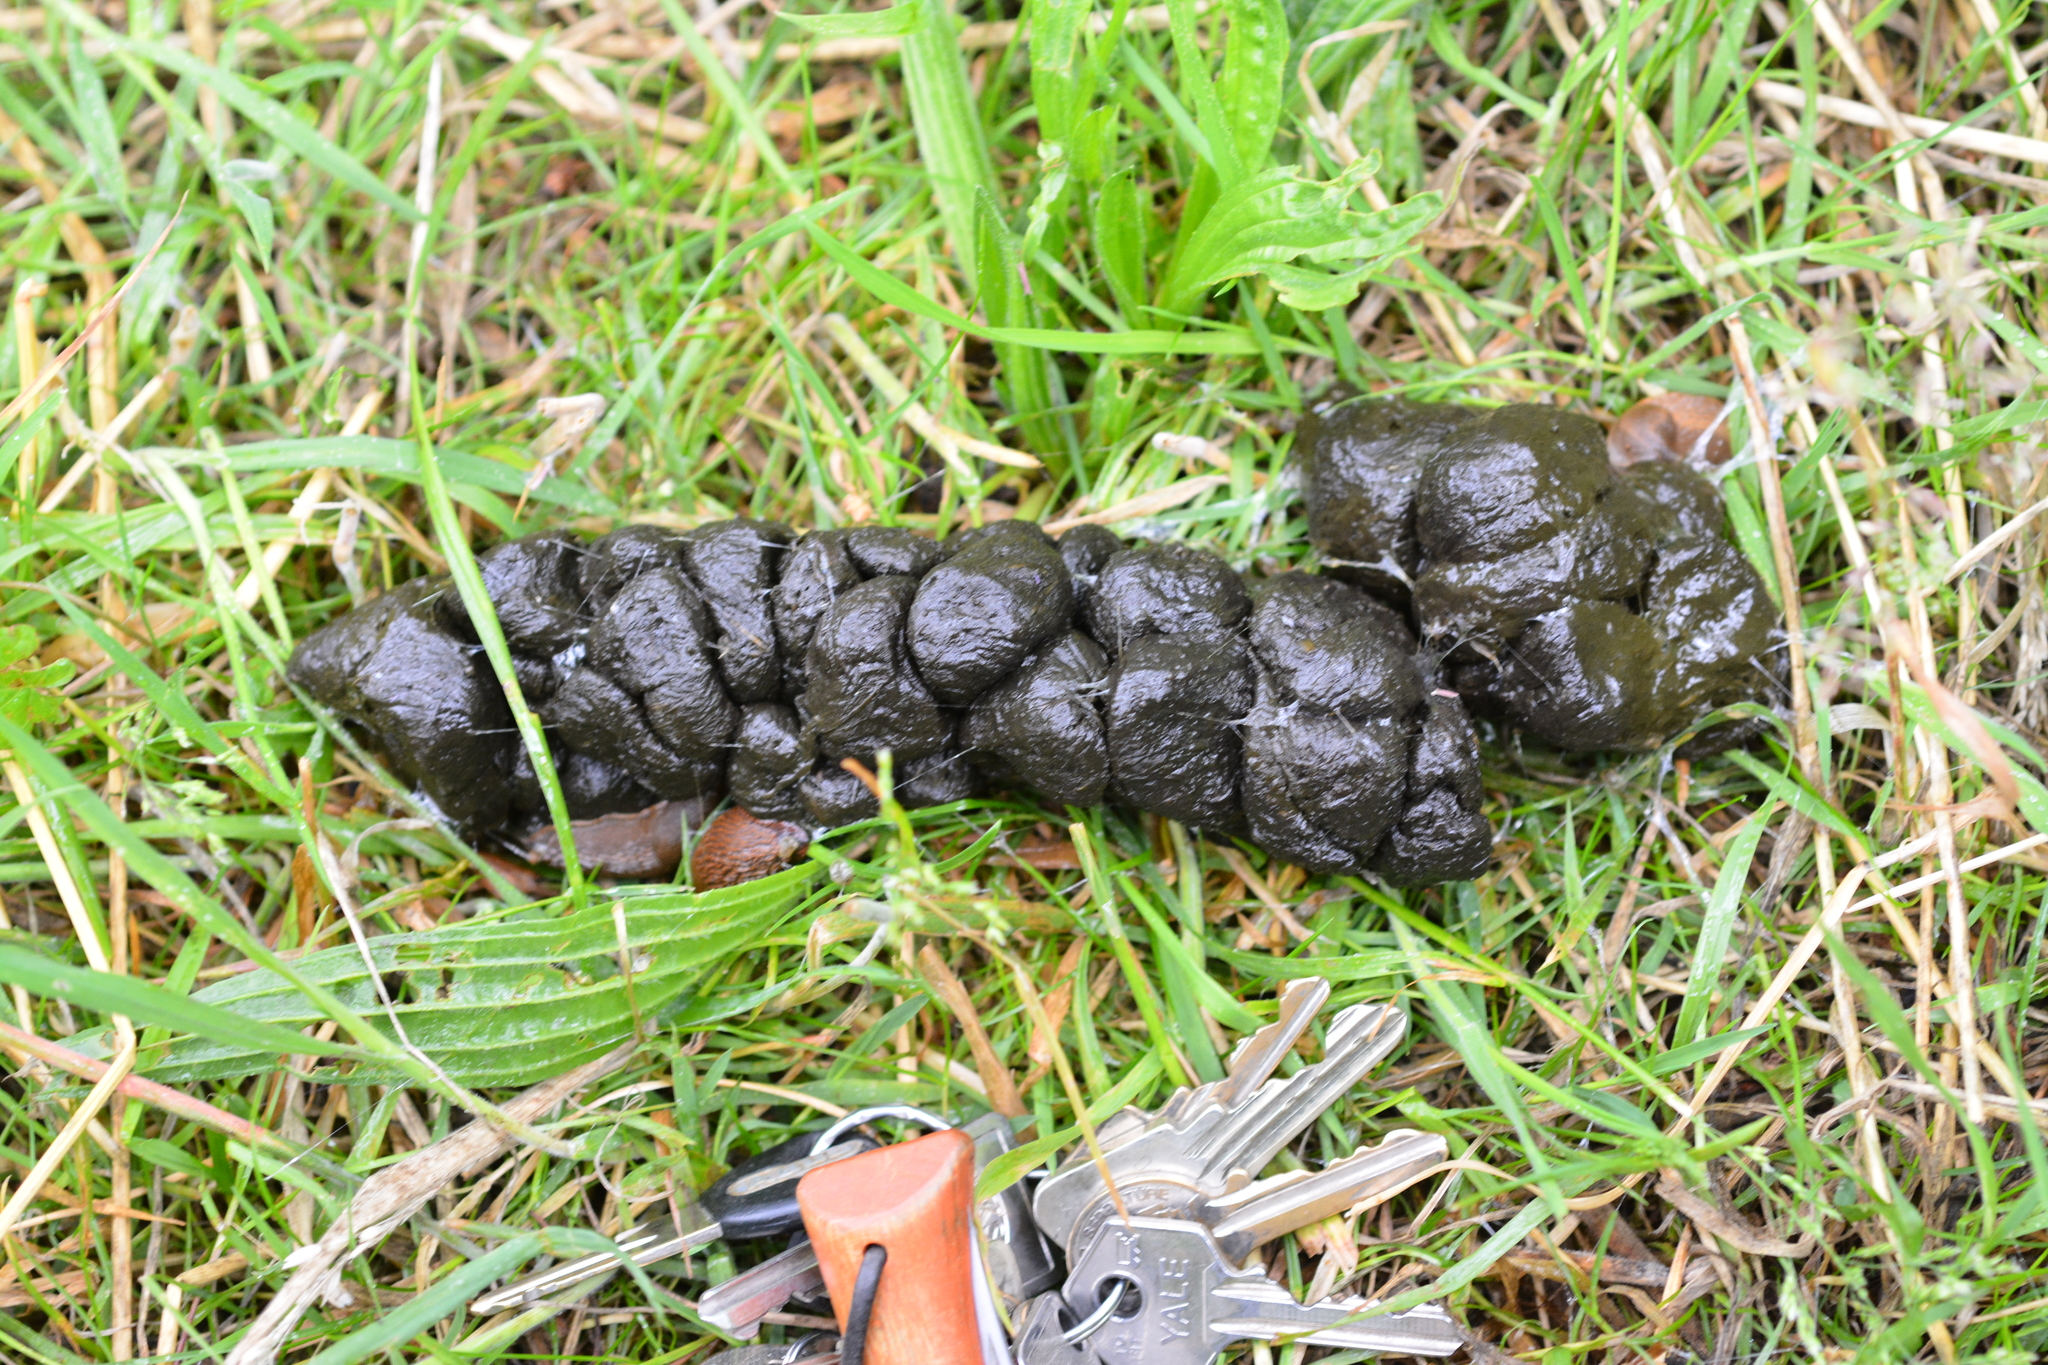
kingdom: Animalia
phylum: Chordata
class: Mammalia
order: Artiodactyla
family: Suidae
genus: Sus
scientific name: Sus scrofa
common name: Wild boar
